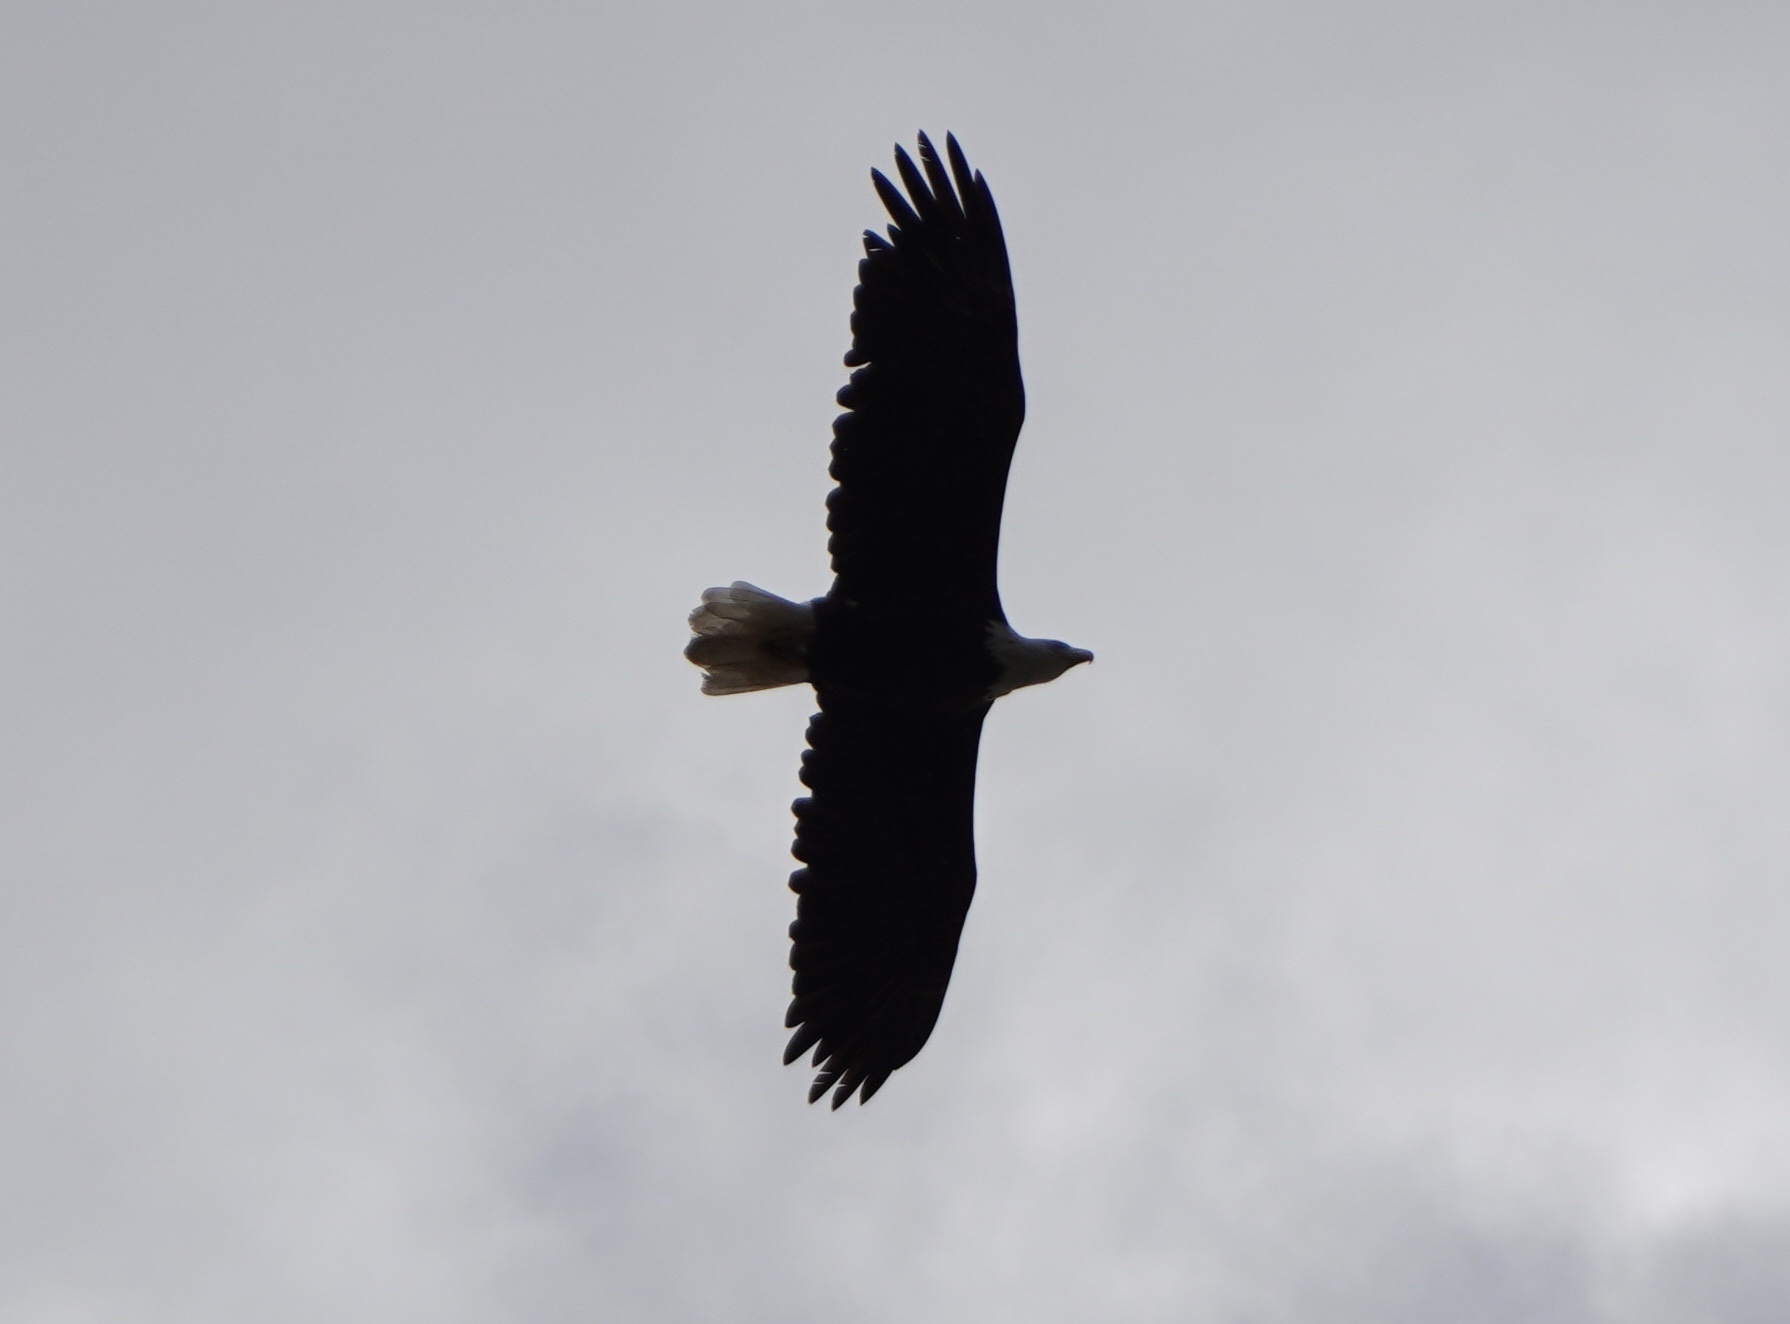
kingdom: Animalia
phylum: Chordata
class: Aves
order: Accipitriformes
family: Accipitridae
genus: Haliaeetus
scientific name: Haliaeetus leucocephalus
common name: Bald eagle
